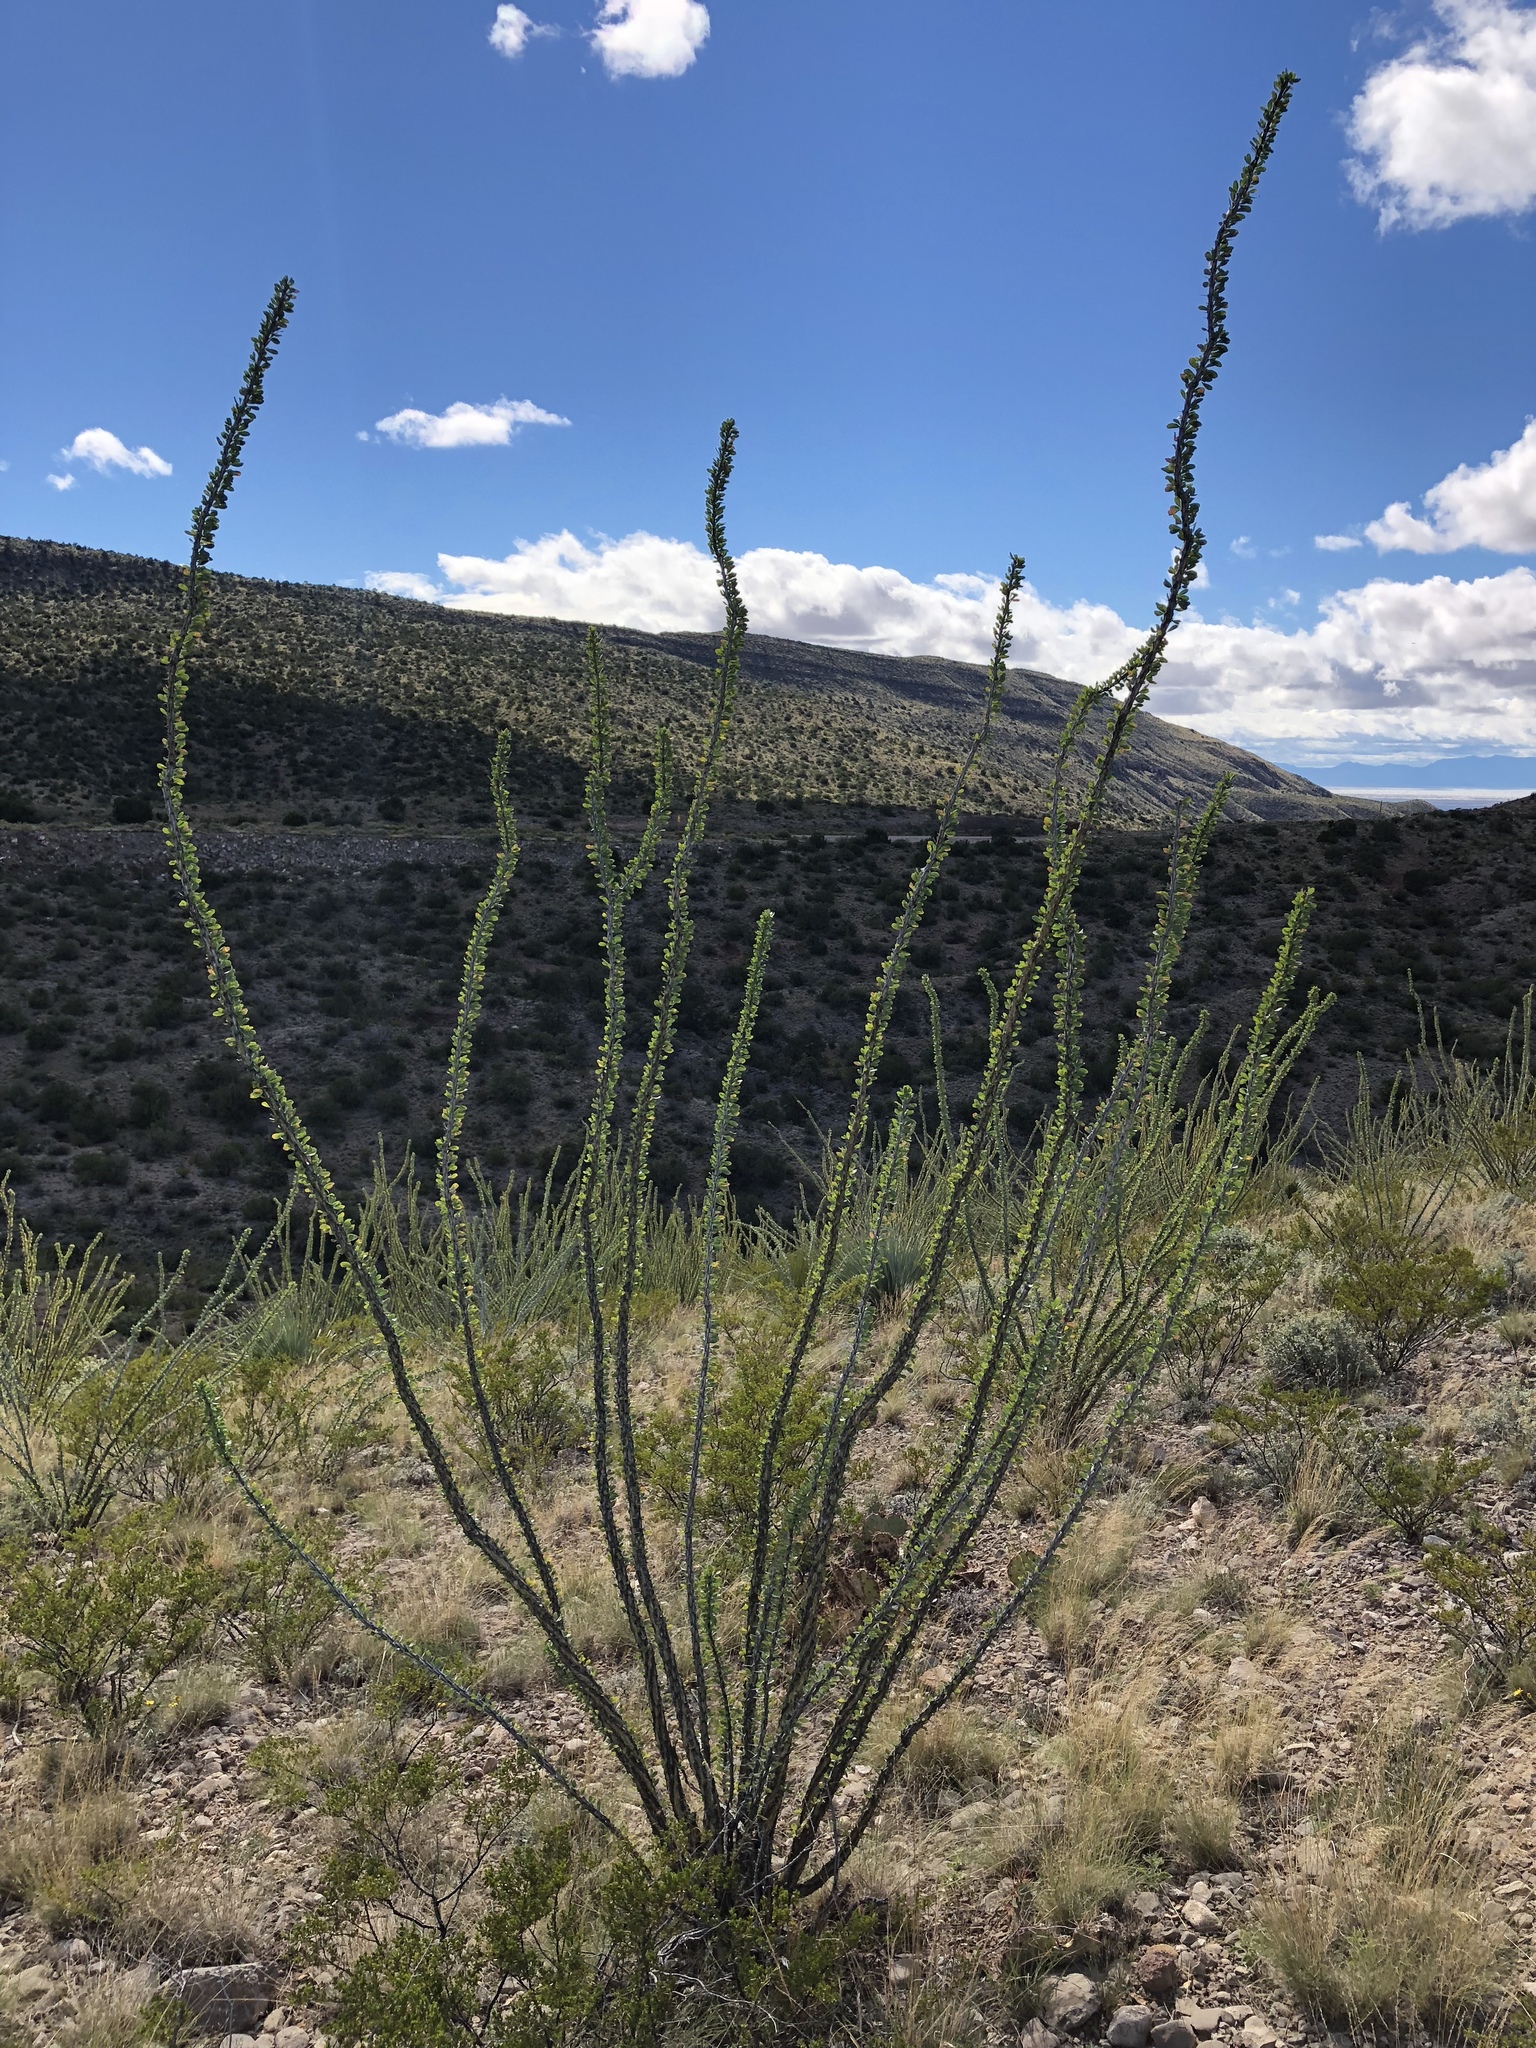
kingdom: Plantae
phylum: Tracheophyta
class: Magnoliopsida
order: Ericales
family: Fouquieriaceae
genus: Fouquieria
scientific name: Fouquieria splendens
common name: Vine-cactus
